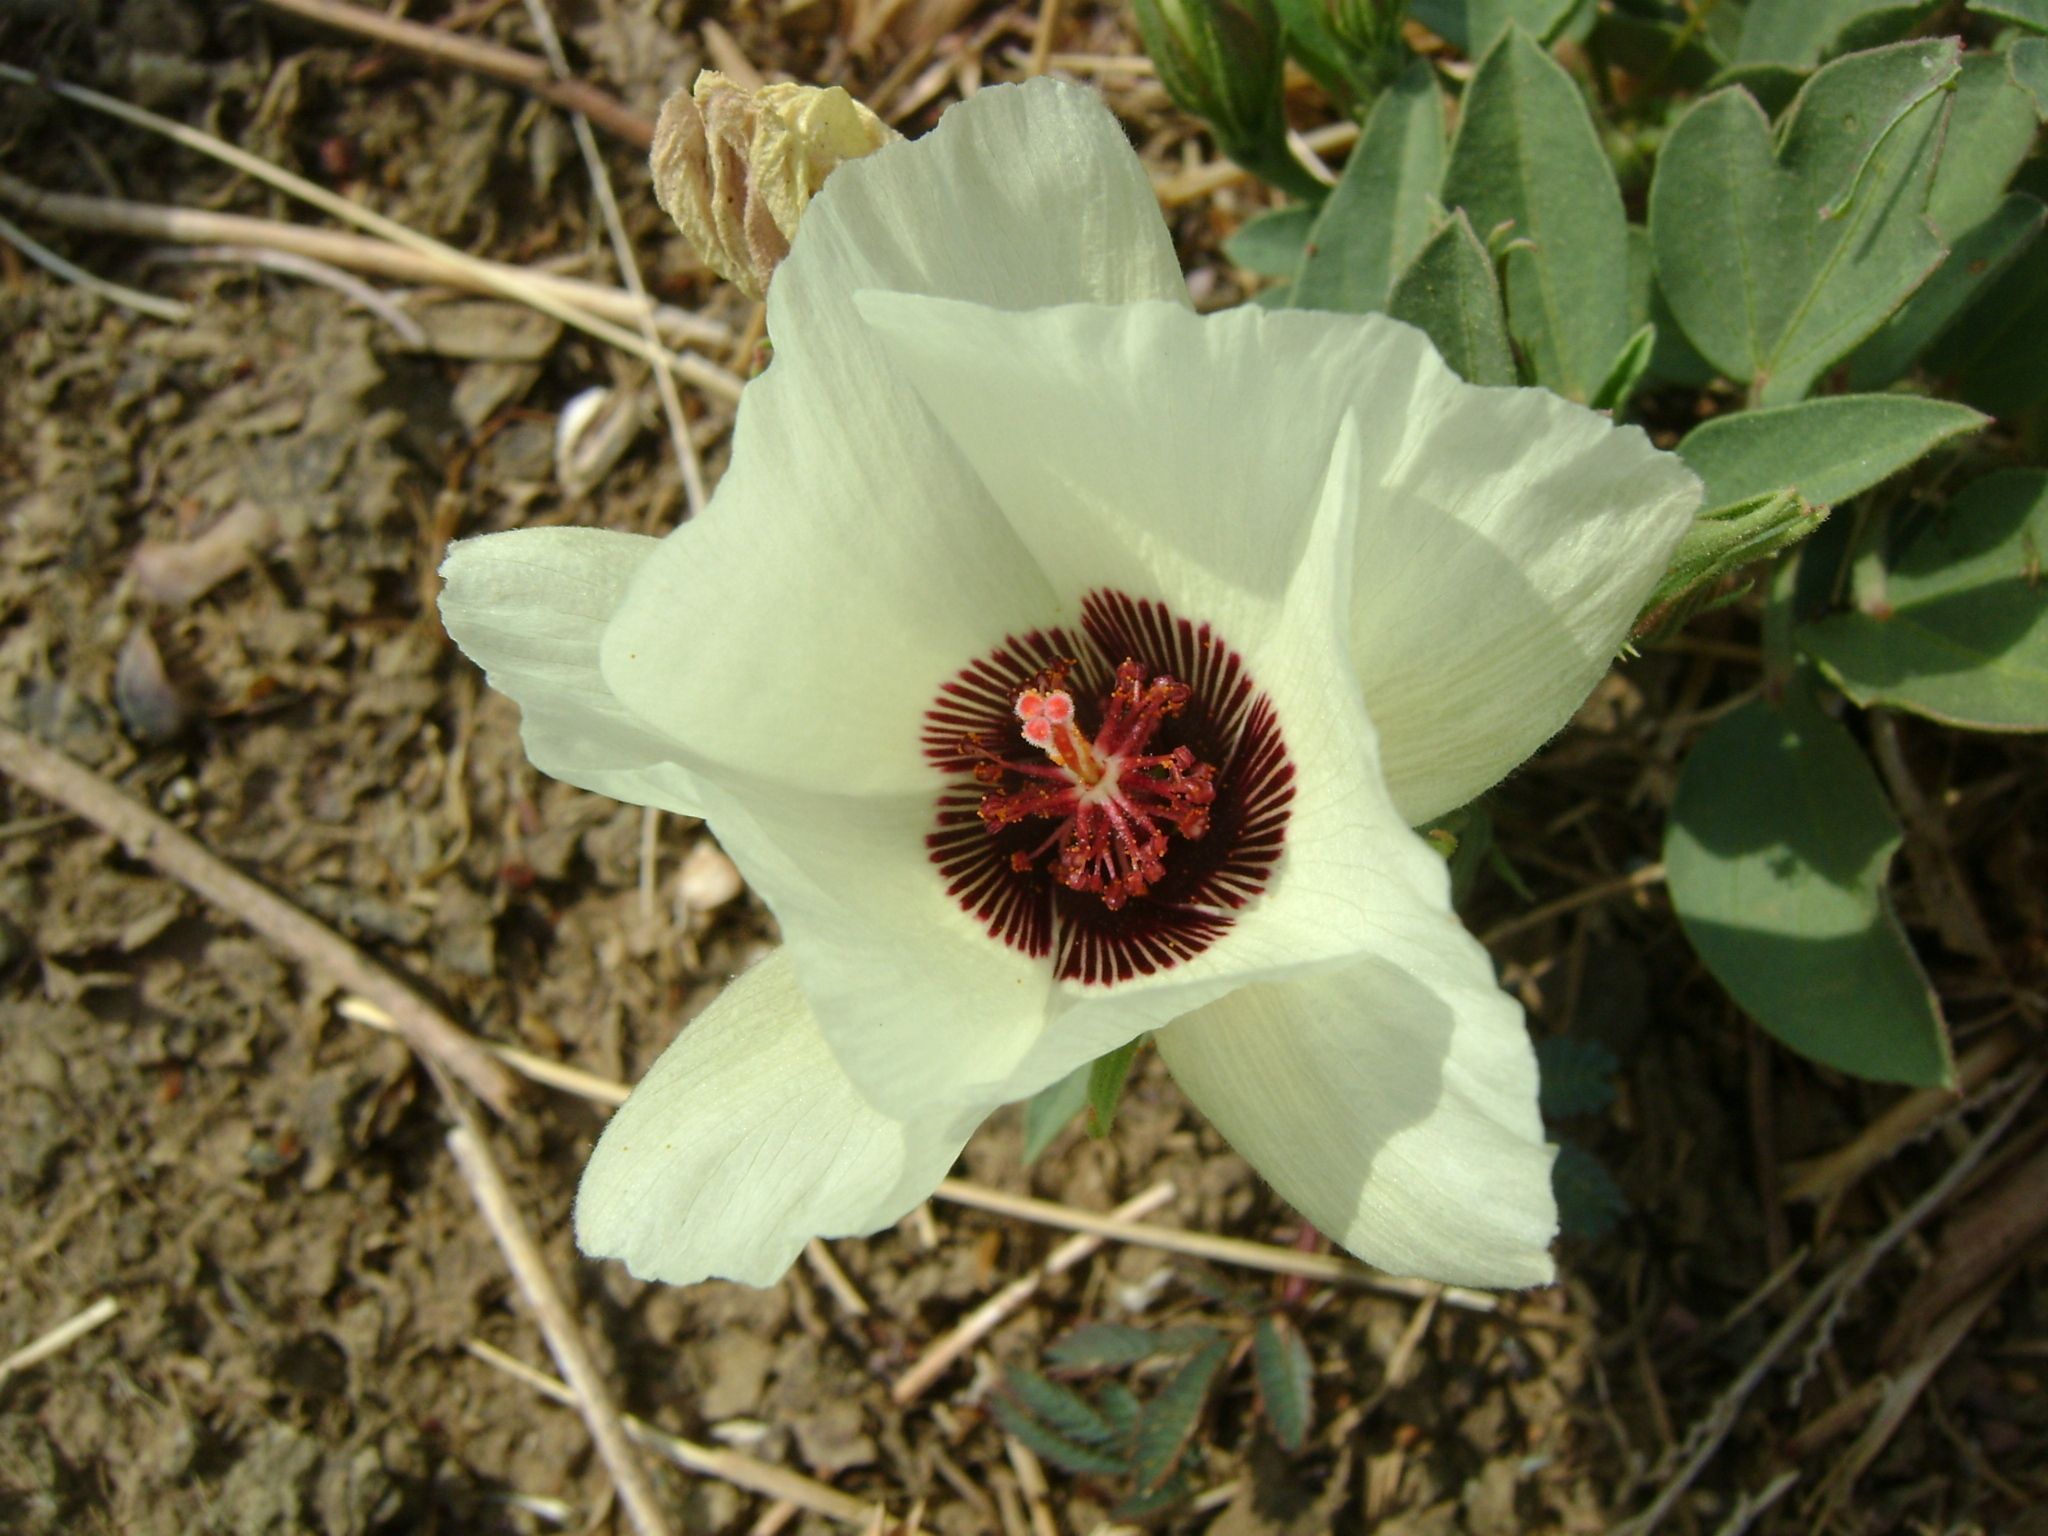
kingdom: Plantae
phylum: Tracheophyta
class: Magnoliopsida
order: Malvales
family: Malvaceae
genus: Cienfuegosia
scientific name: Cienfuegosia rosei
